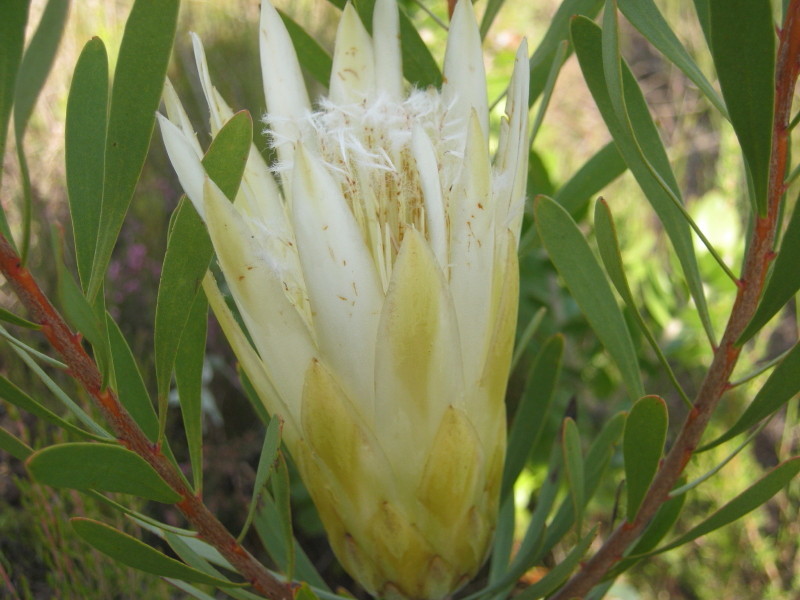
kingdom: Plantae
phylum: Tracheophyta
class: Magnoliopsida
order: Proteales
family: Proteaceae
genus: Protea
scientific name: Protea repens
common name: Sugarbush
